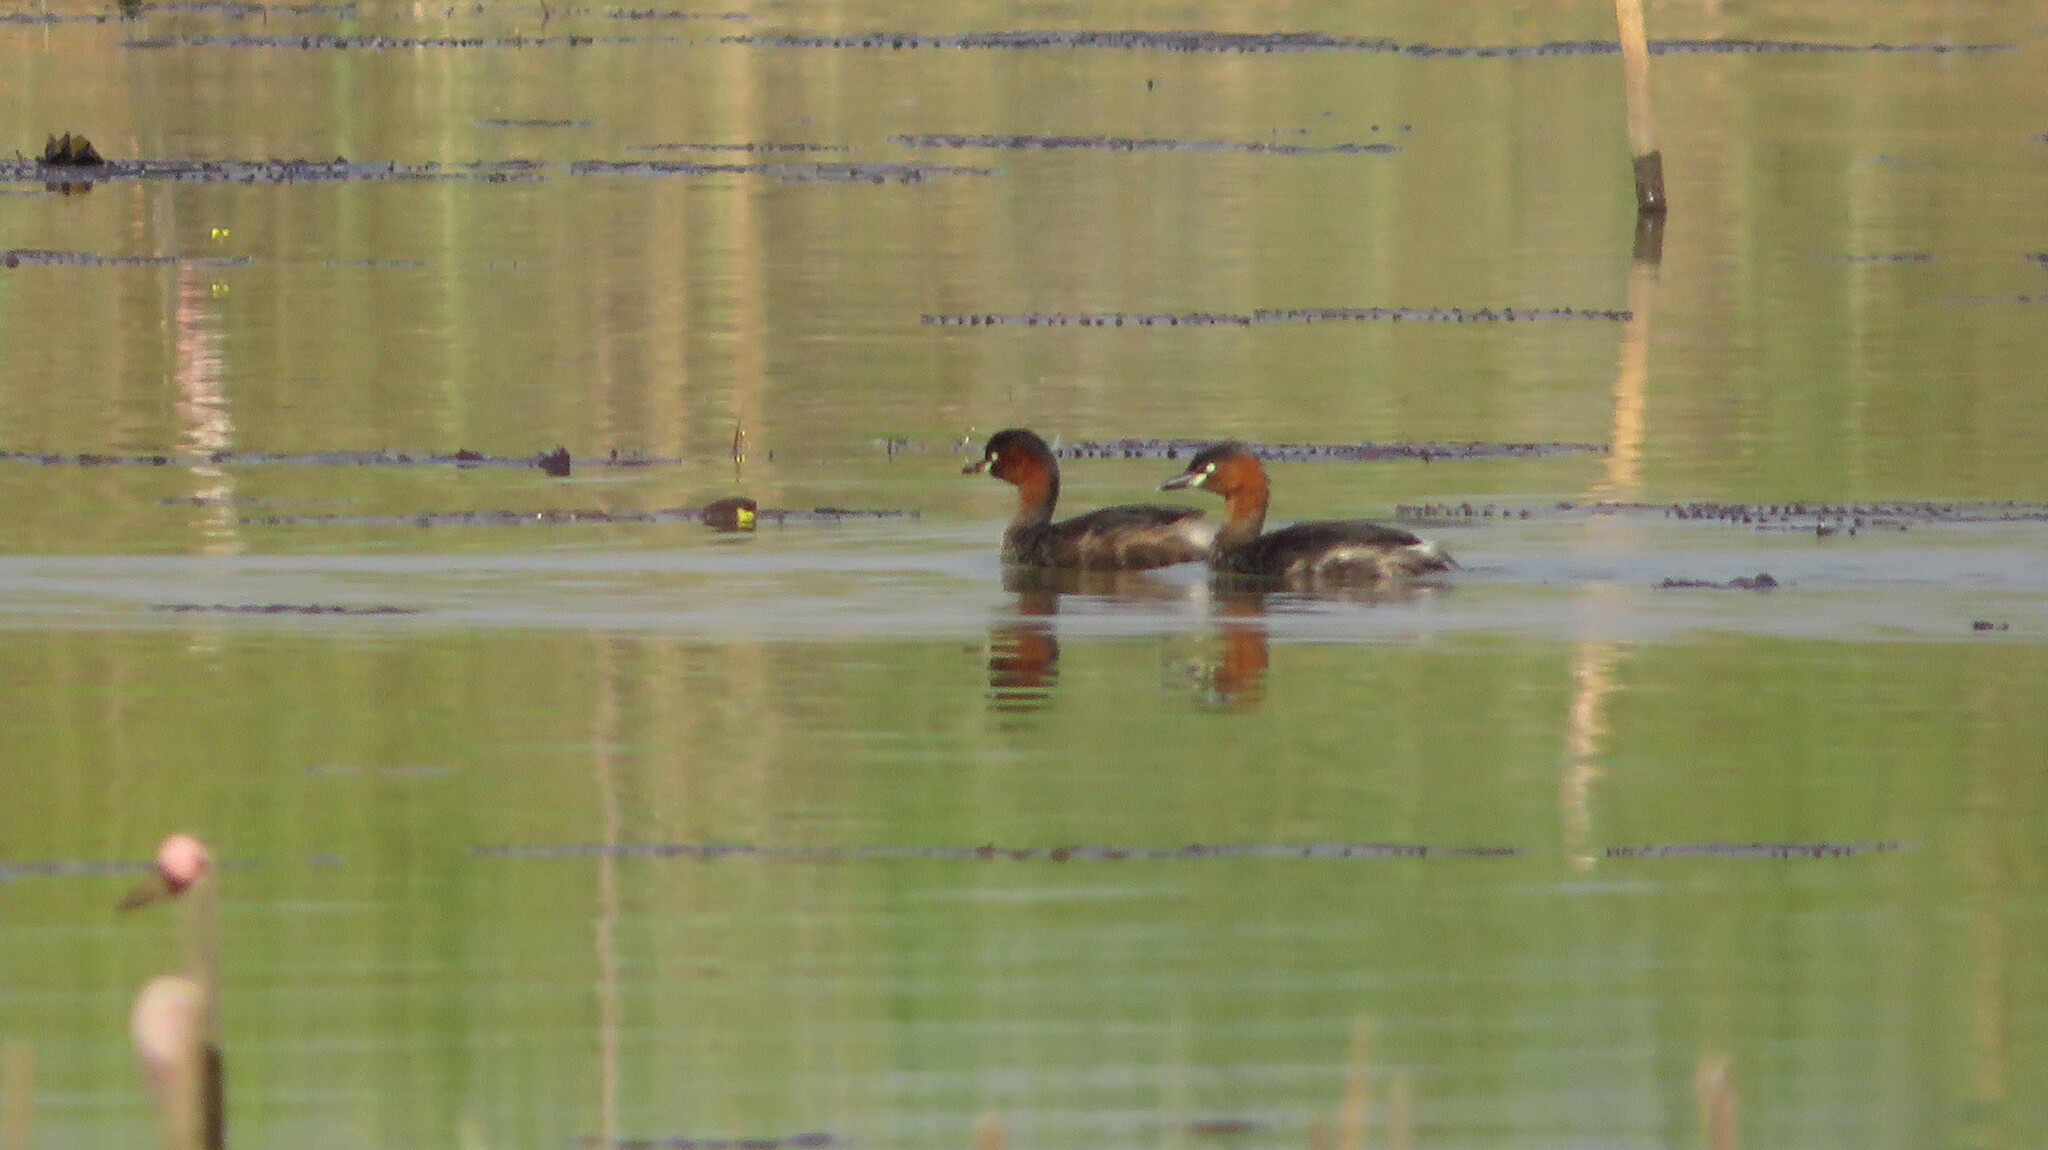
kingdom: Animalia
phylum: Chordata
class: Aves
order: Podicipediformes
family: Podicipedidae
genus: Tachybaptus
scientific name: Tachybaptus ruficollis
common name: Little grebe
